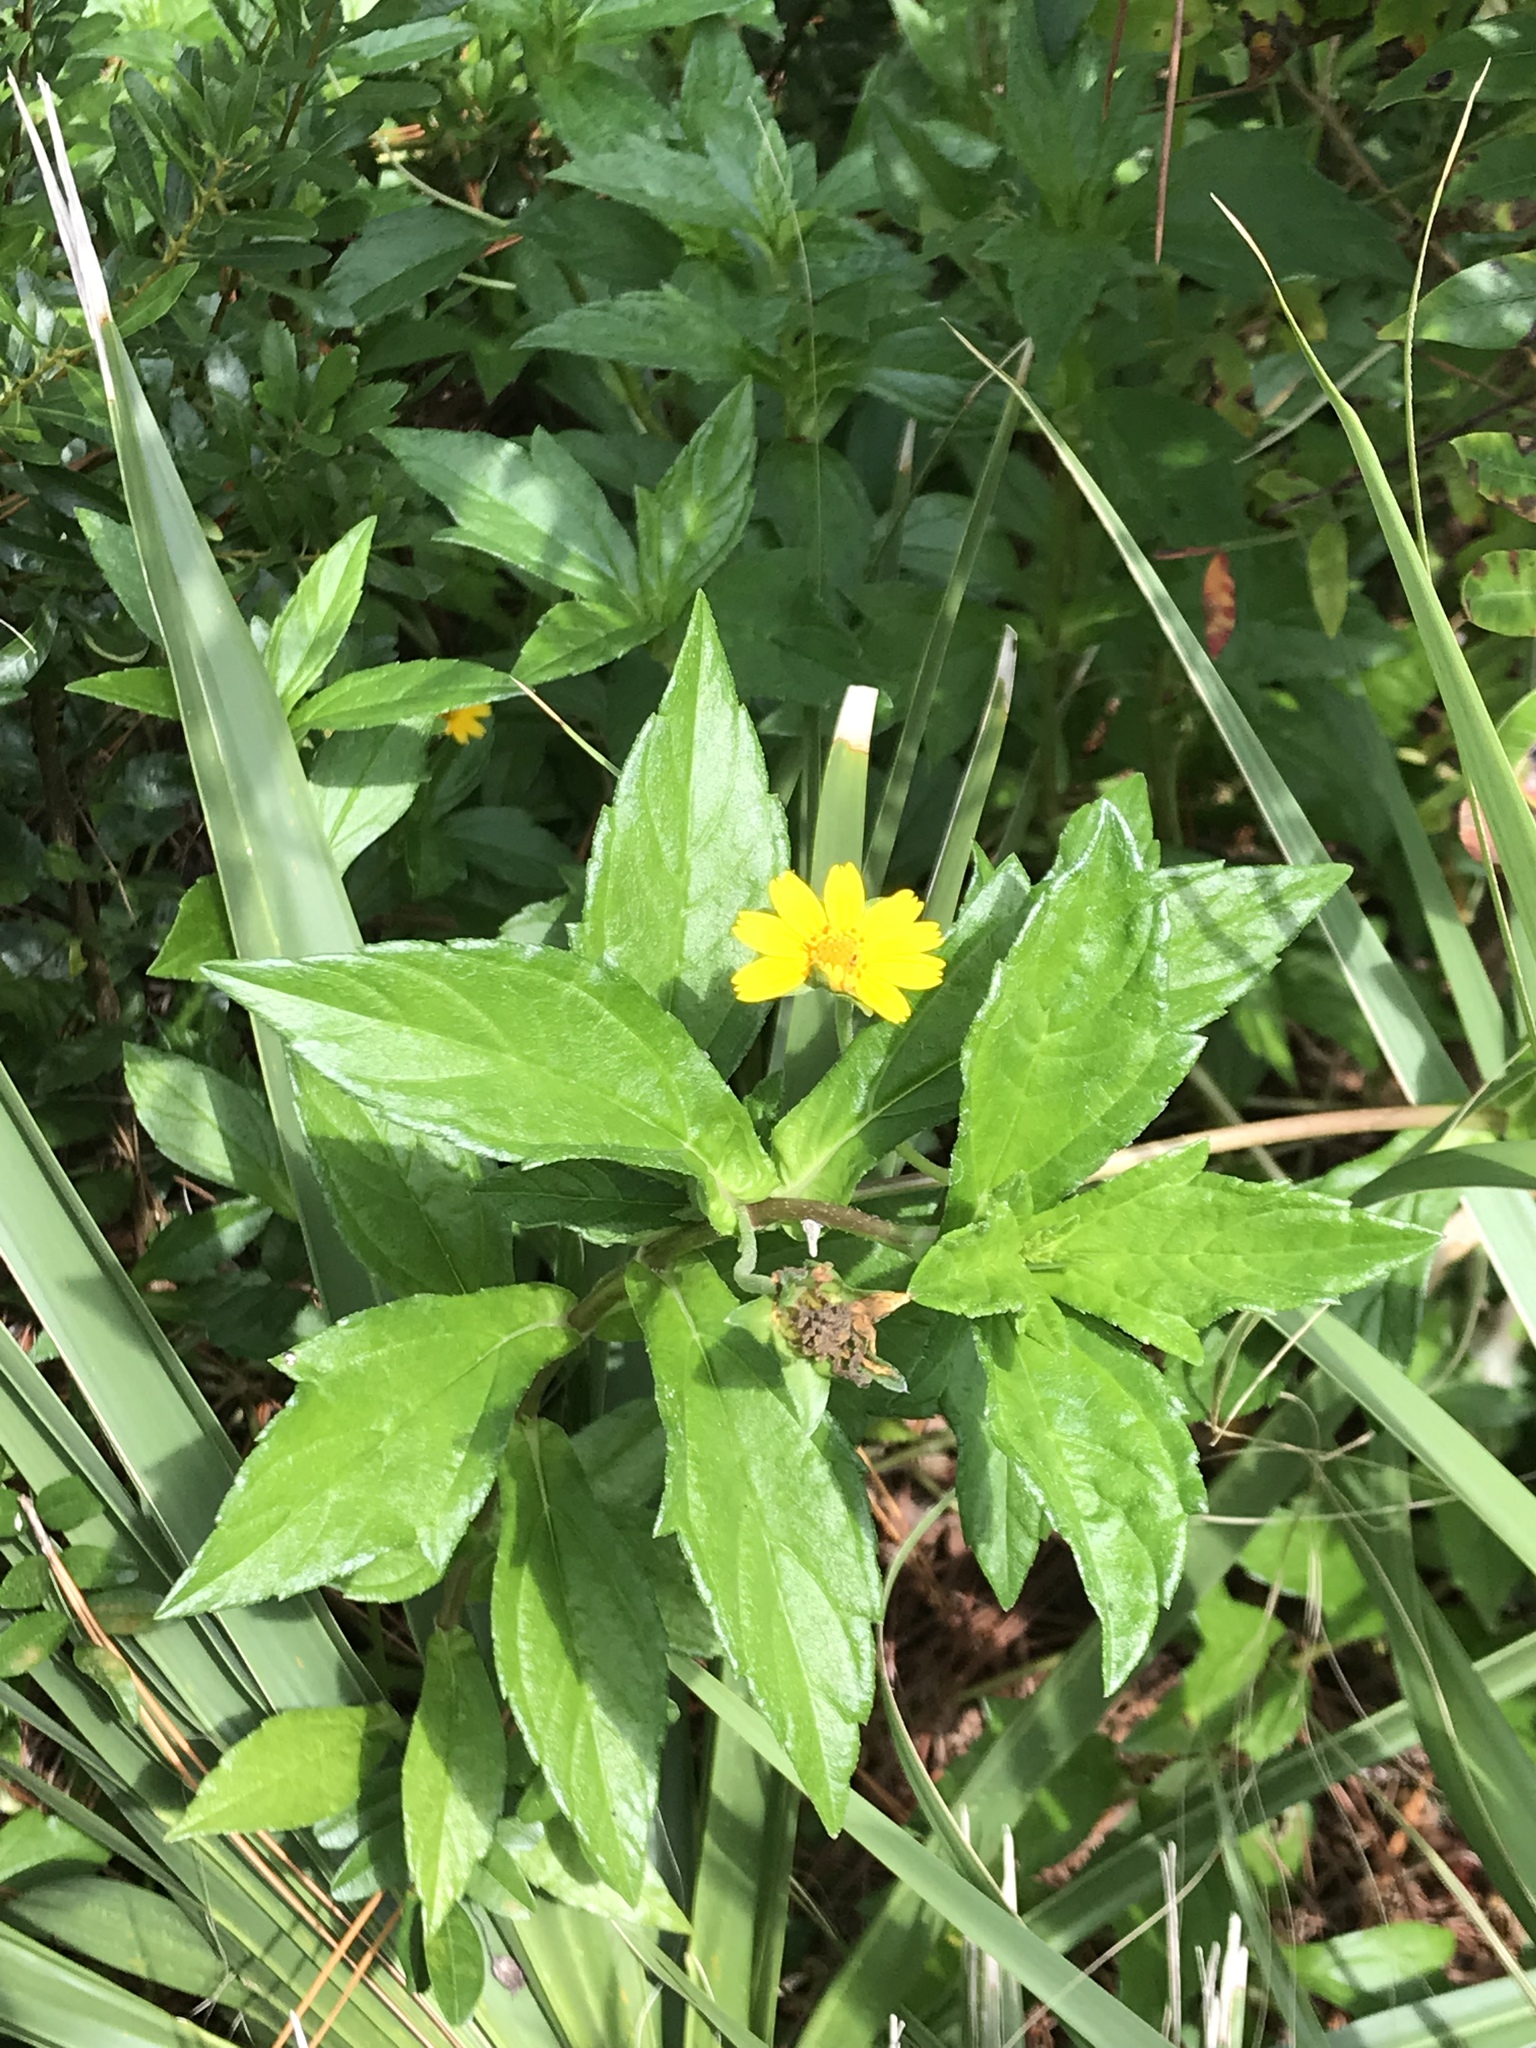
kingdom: Plantae
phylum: Tracheophyta
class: Magnoliopsida
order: Asterales
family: Asteraceae
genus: Sphagneticola
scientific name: Sphagneticola trilobata
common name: Bay biscayne creeping-oxeye
